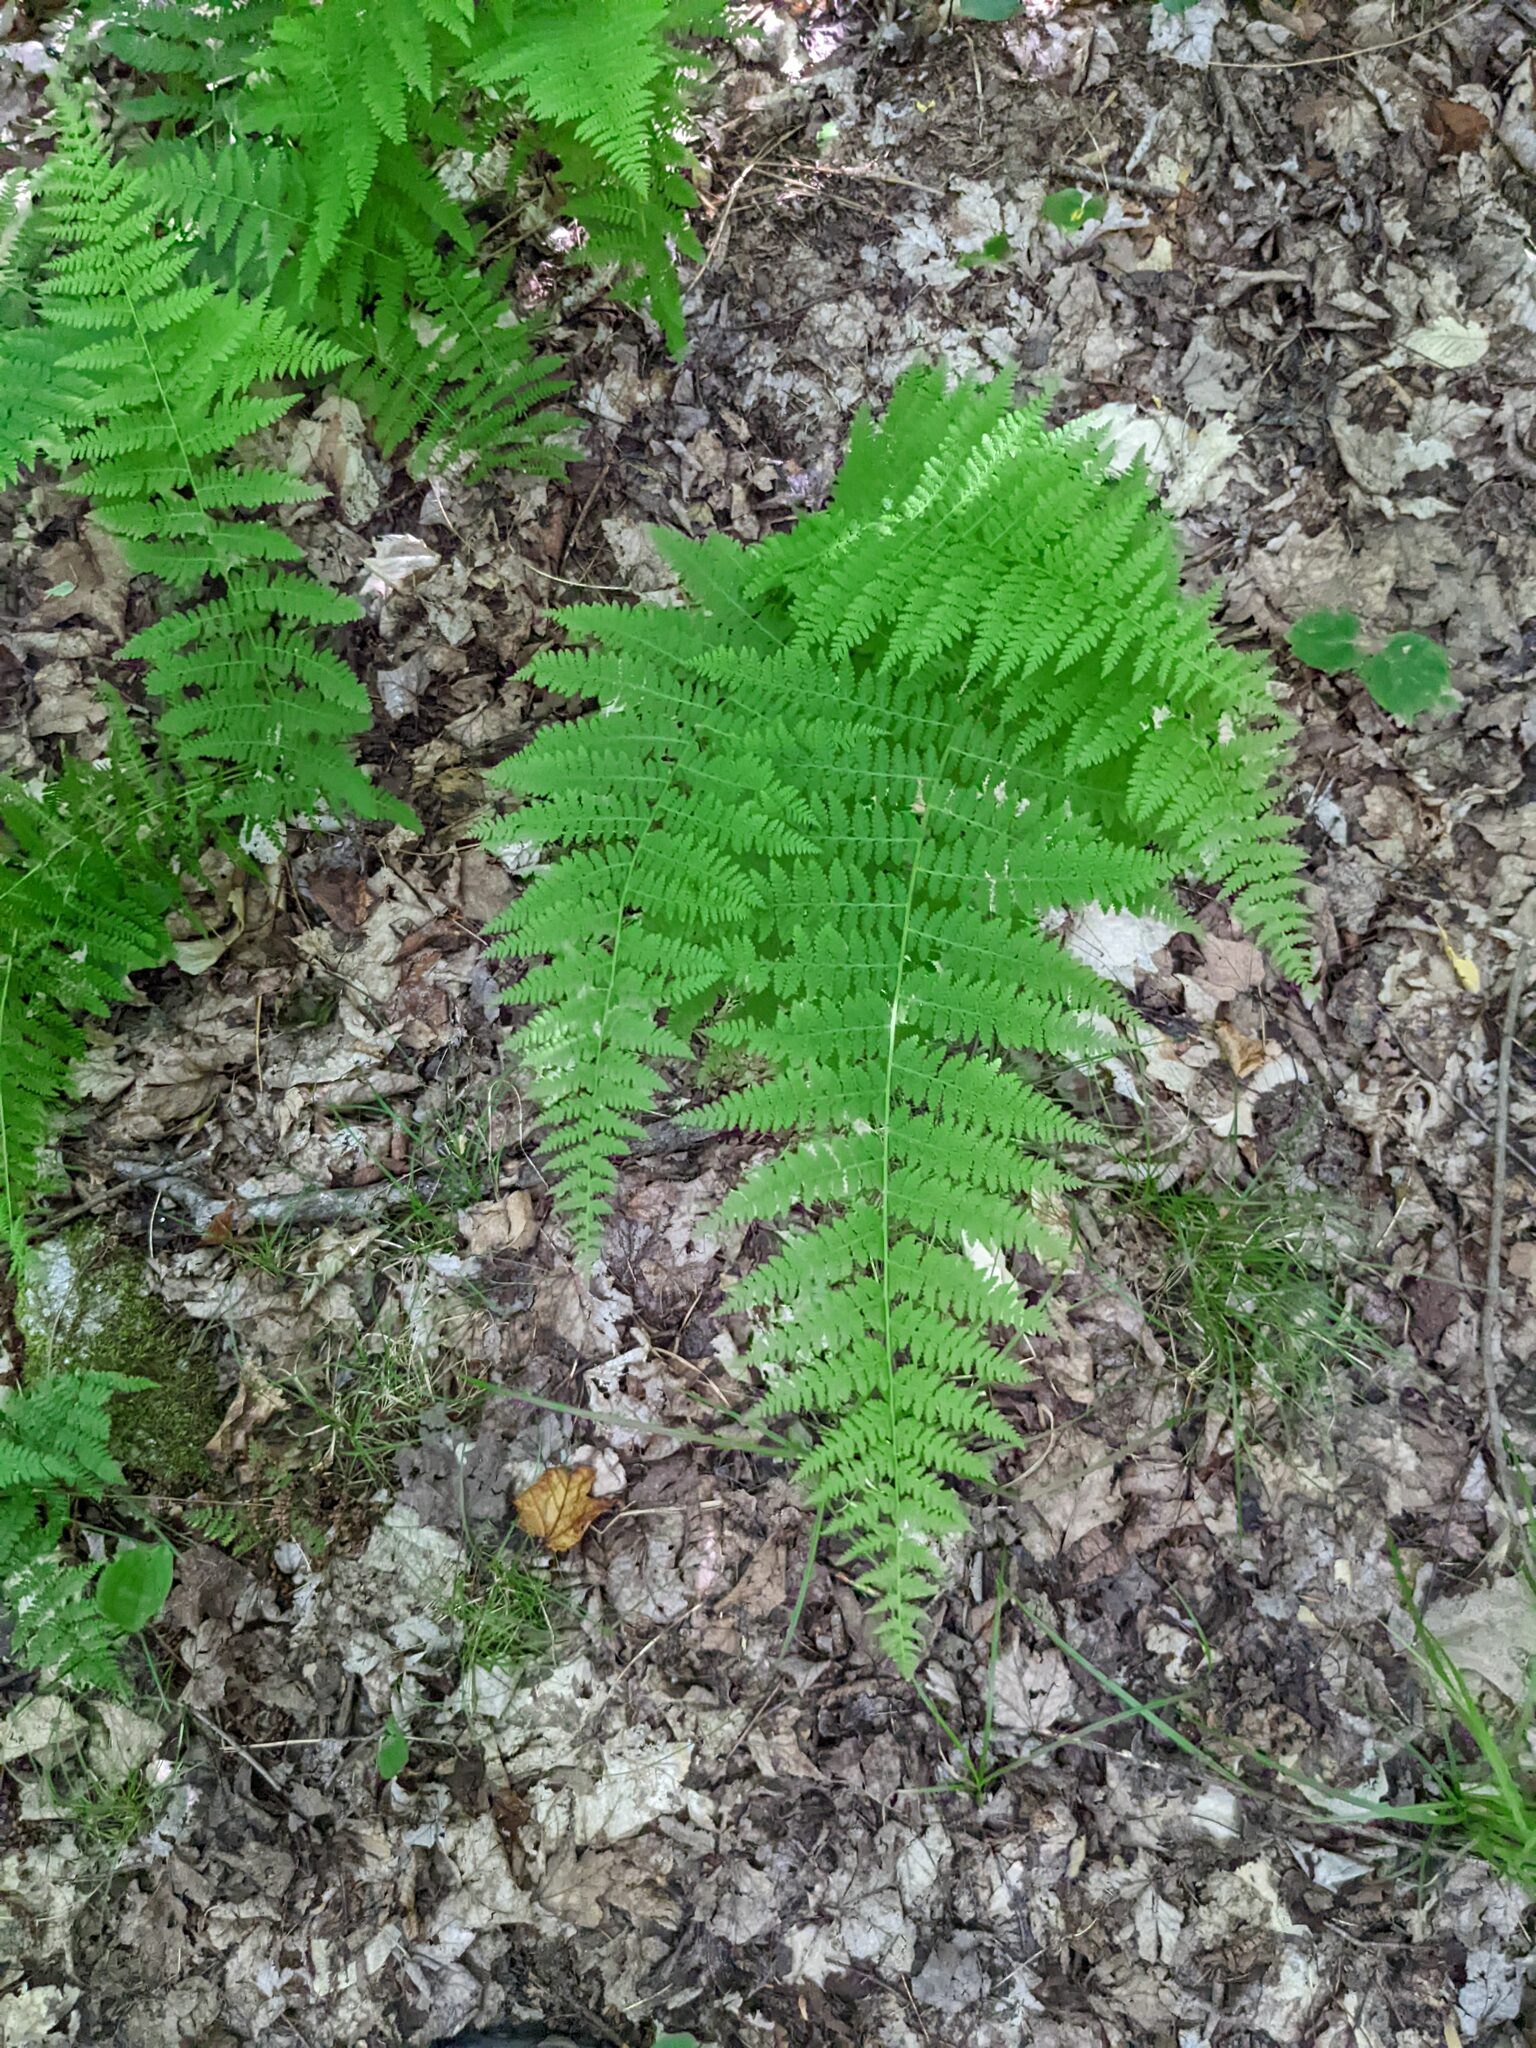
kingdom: Plantae
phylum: Tracheophyta
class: Polypodiopsida
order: Polypodiales
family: Dennstaedtiaceae
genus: Sitobolium
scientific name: Sitobolium punctilobum
